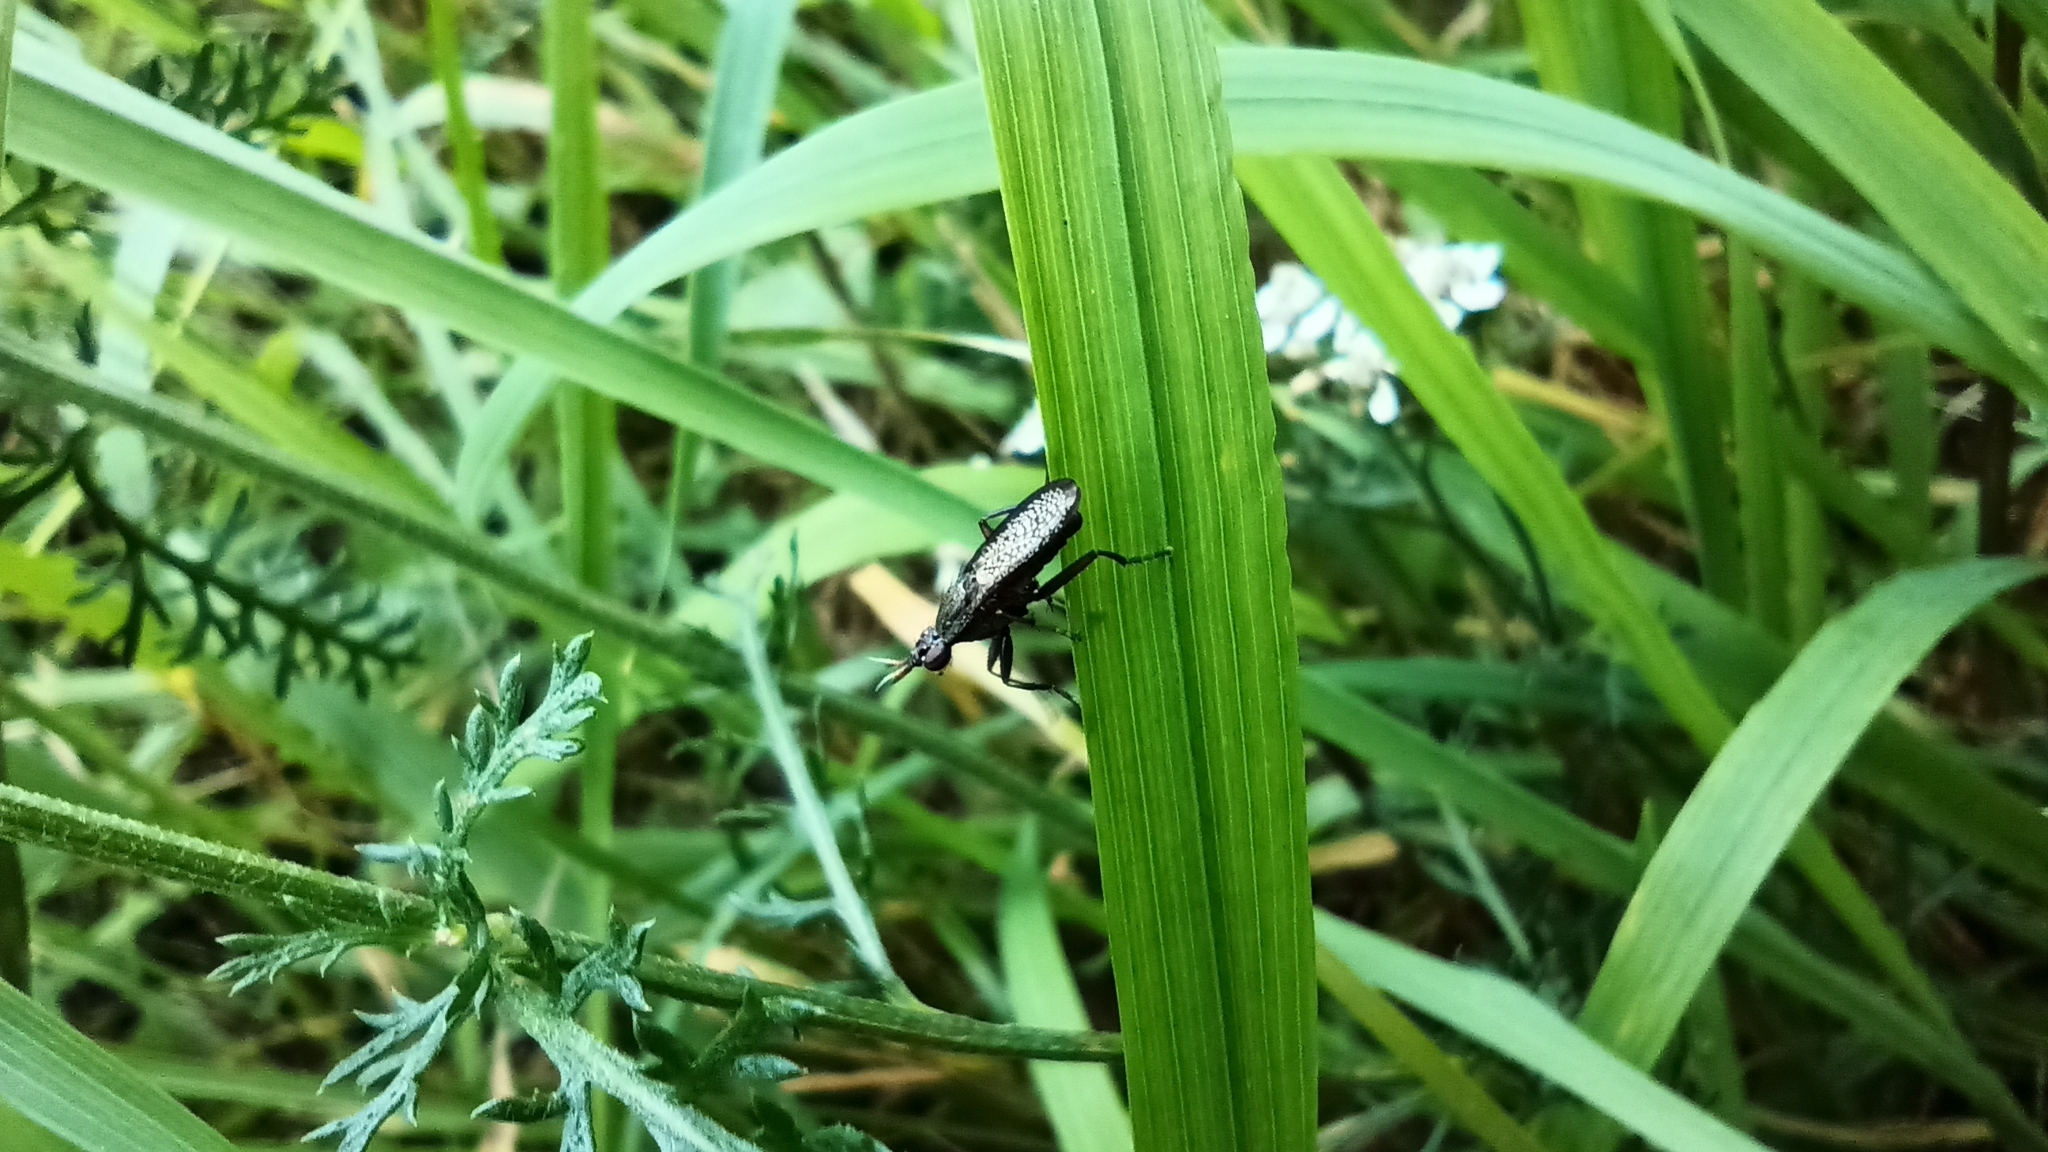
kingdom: Animalia
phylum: Arthropoda
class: Insecta
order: Diptera
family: Sciomyzidae
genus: Coremacera
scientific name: Coremacera marginata
